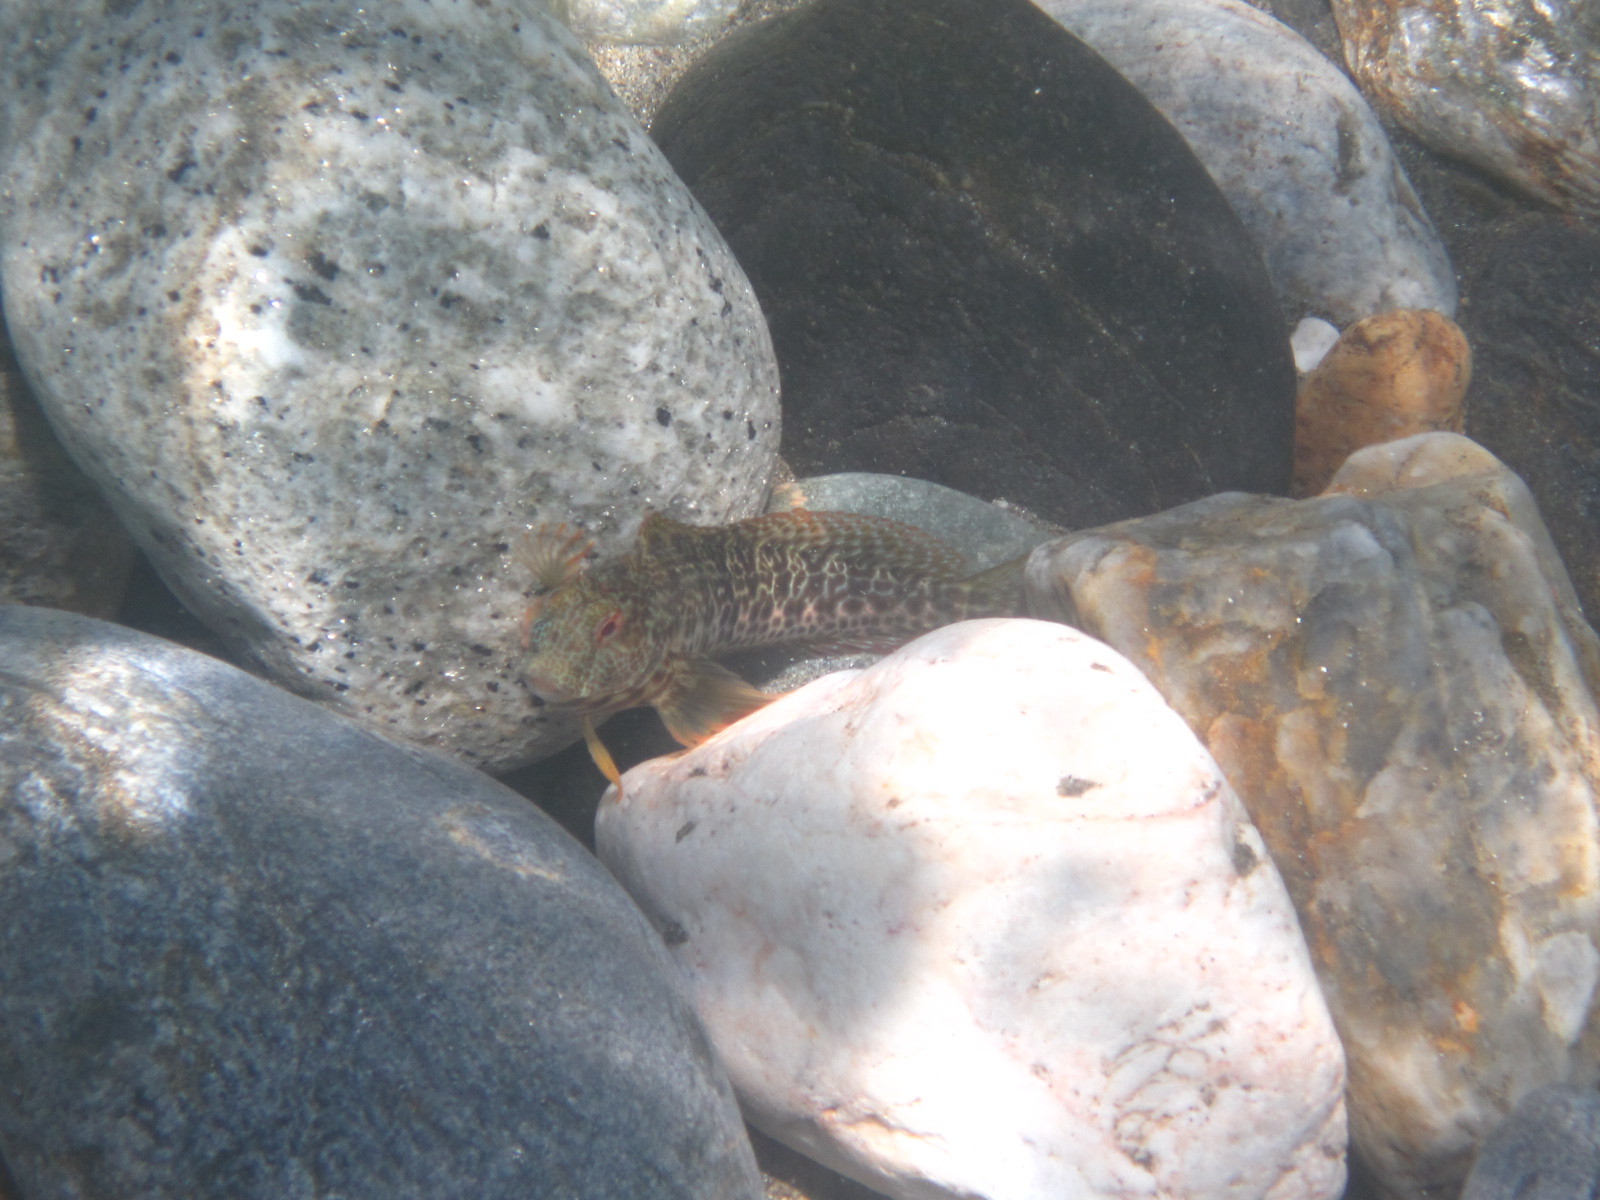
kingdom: Animalia
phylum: Chordata
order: Perciformes
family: Blenniidae
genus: Parablennius
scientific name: Parablennius pilicornis
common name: Ringneck blenny
